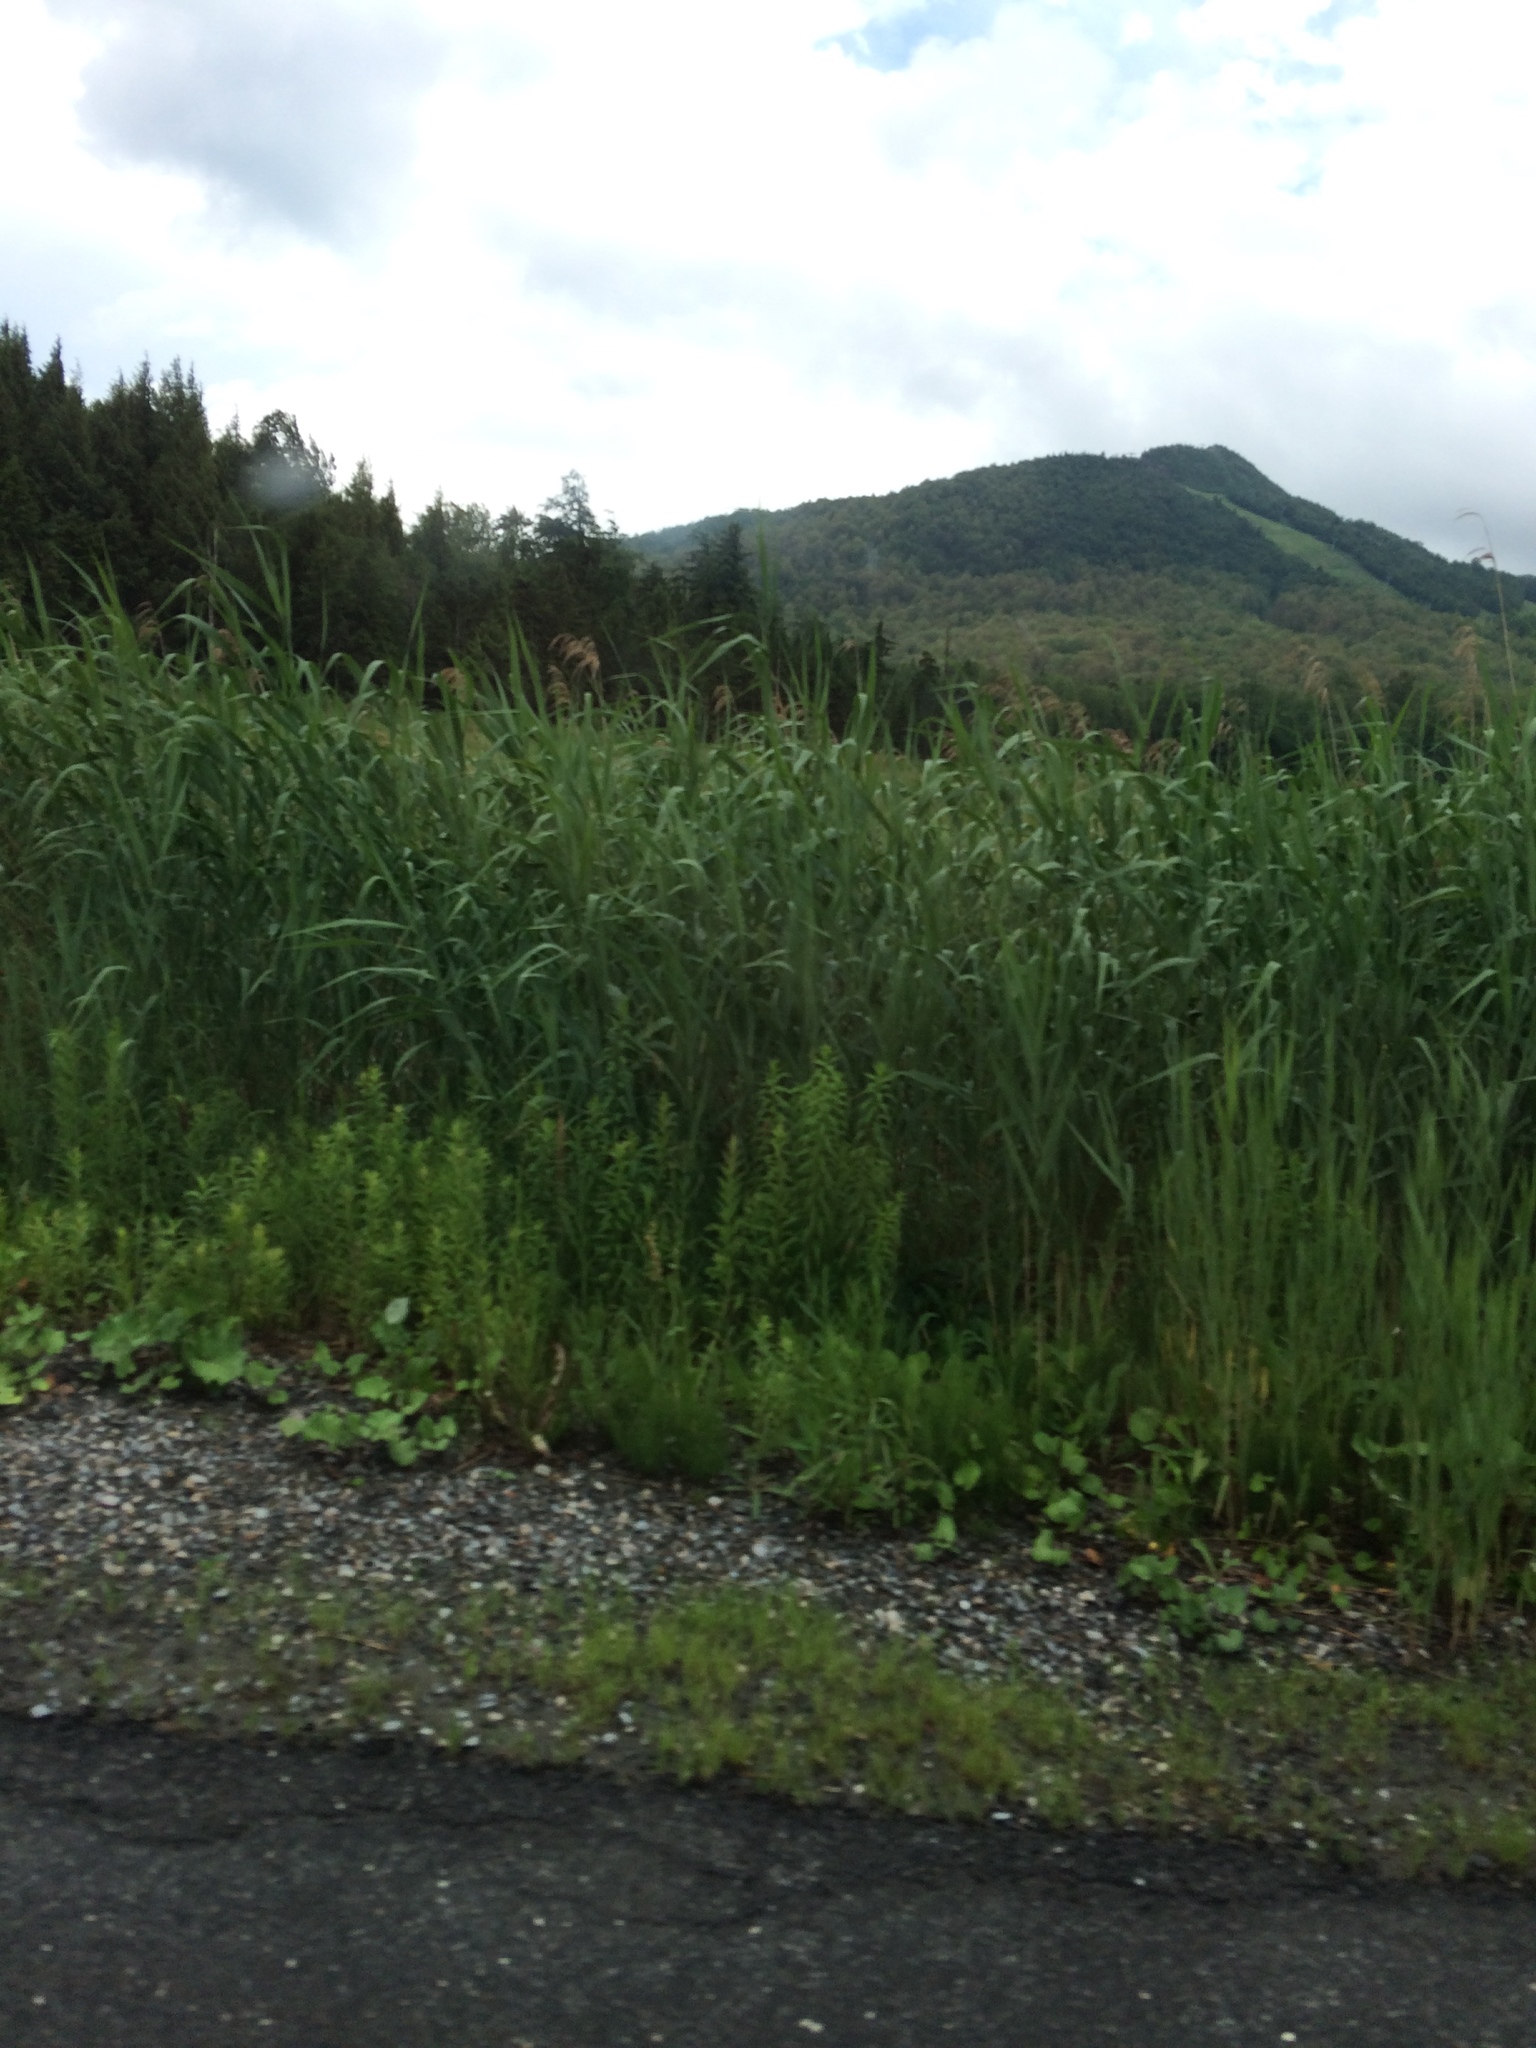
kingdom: Plantae
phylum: Tracheophyta
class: Liliopsida
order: Poales
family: Poaceae
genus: Phragmites
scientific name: Phragmites australis
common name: Common reed
